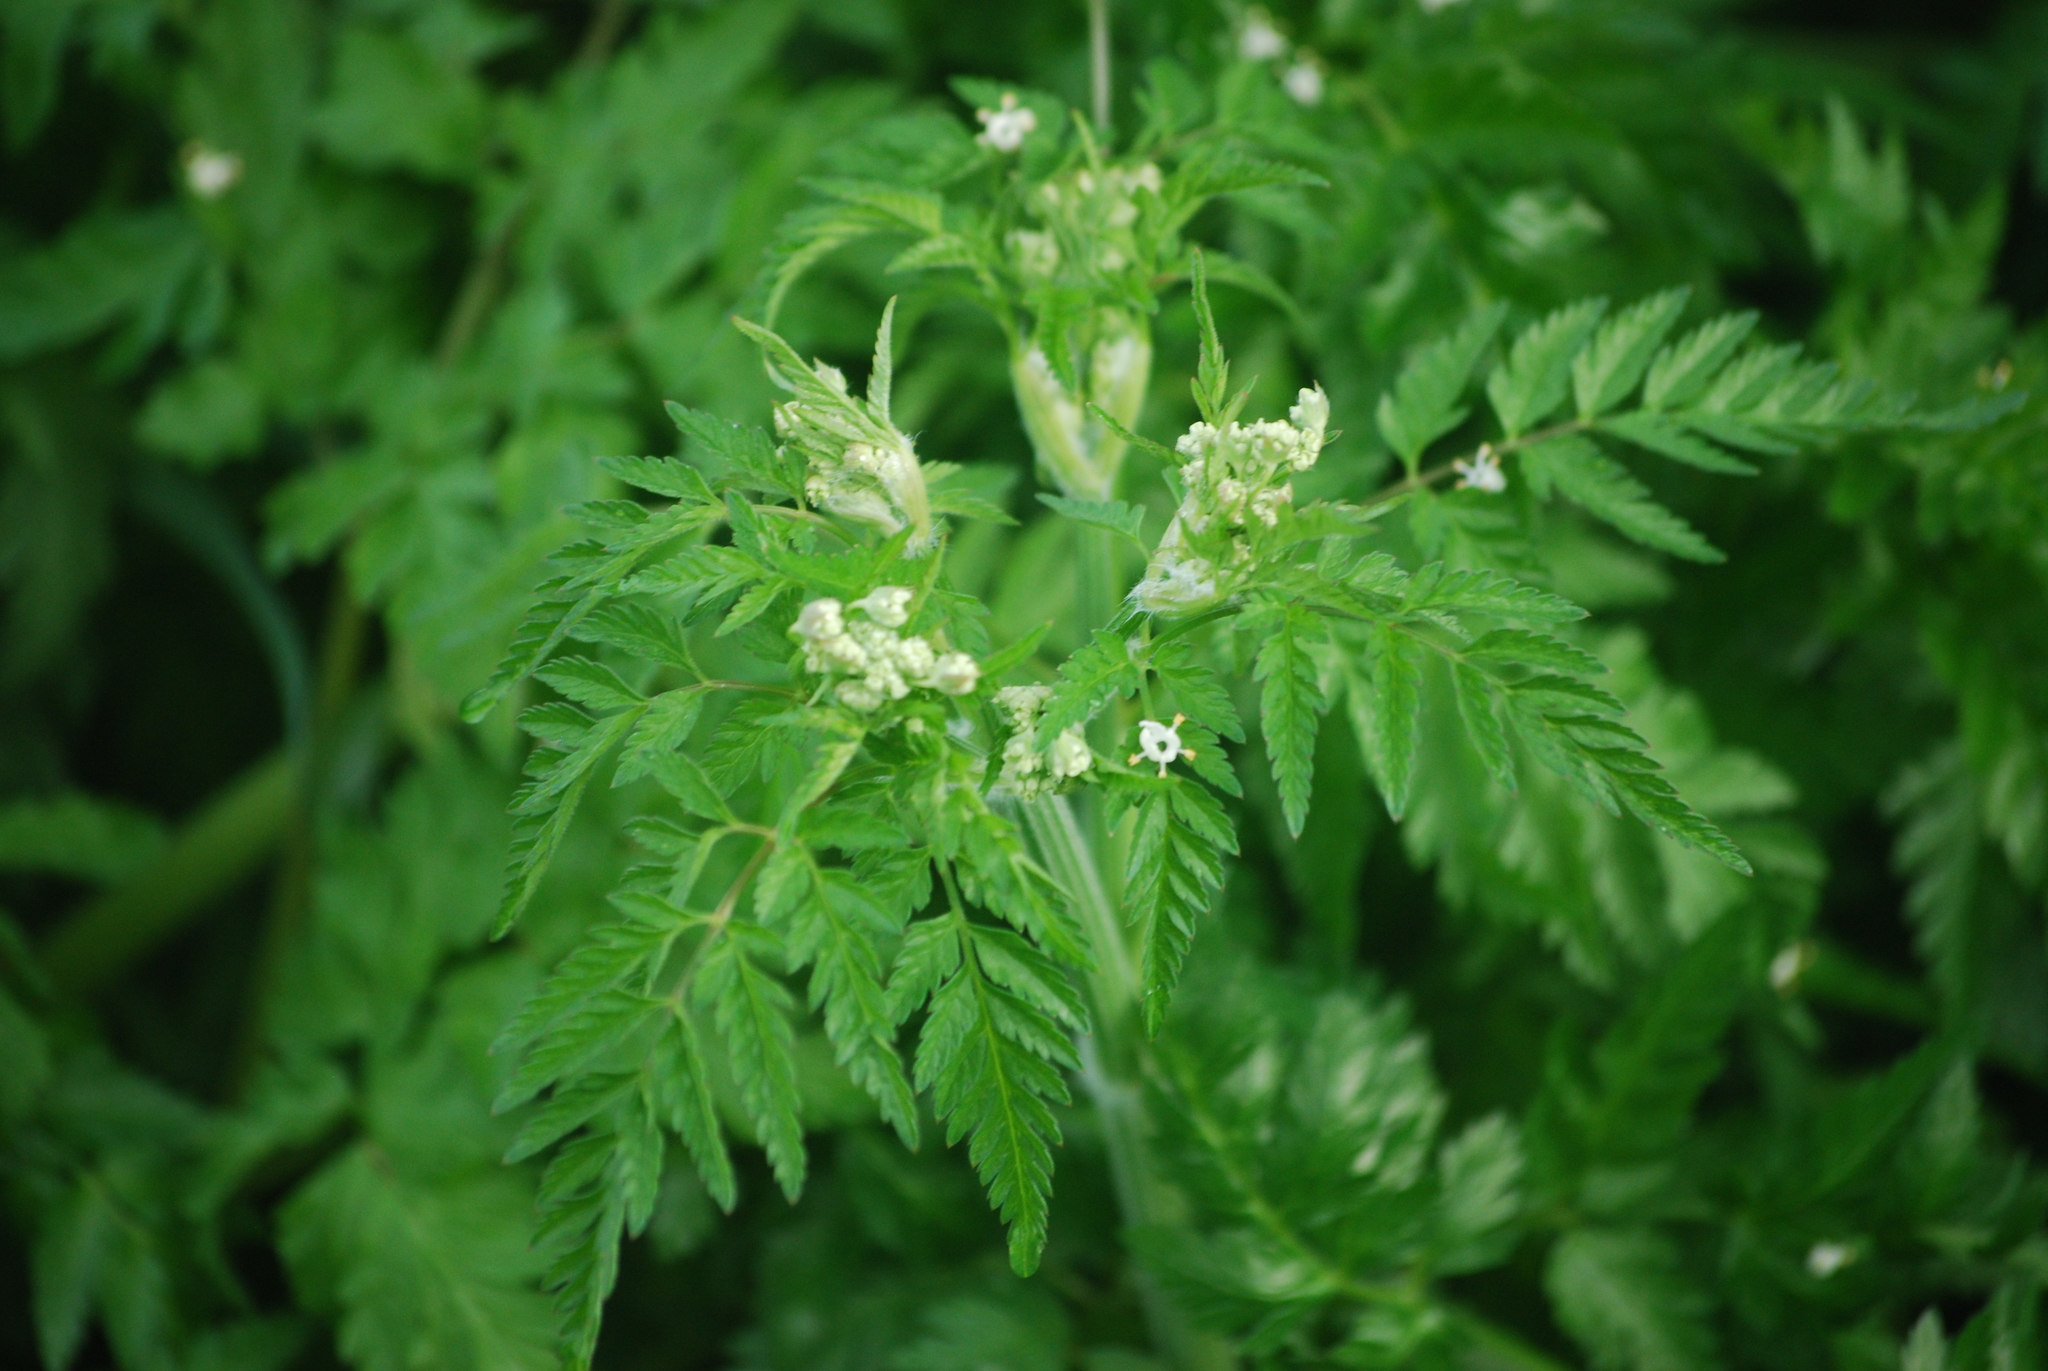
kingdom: Plantae
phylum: Tracheophyta
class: Magnoliopsida
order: Apiales
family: Apiaceae
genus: Anthriscus
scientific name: Anthriscus sylvestris
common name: Cow parsley
